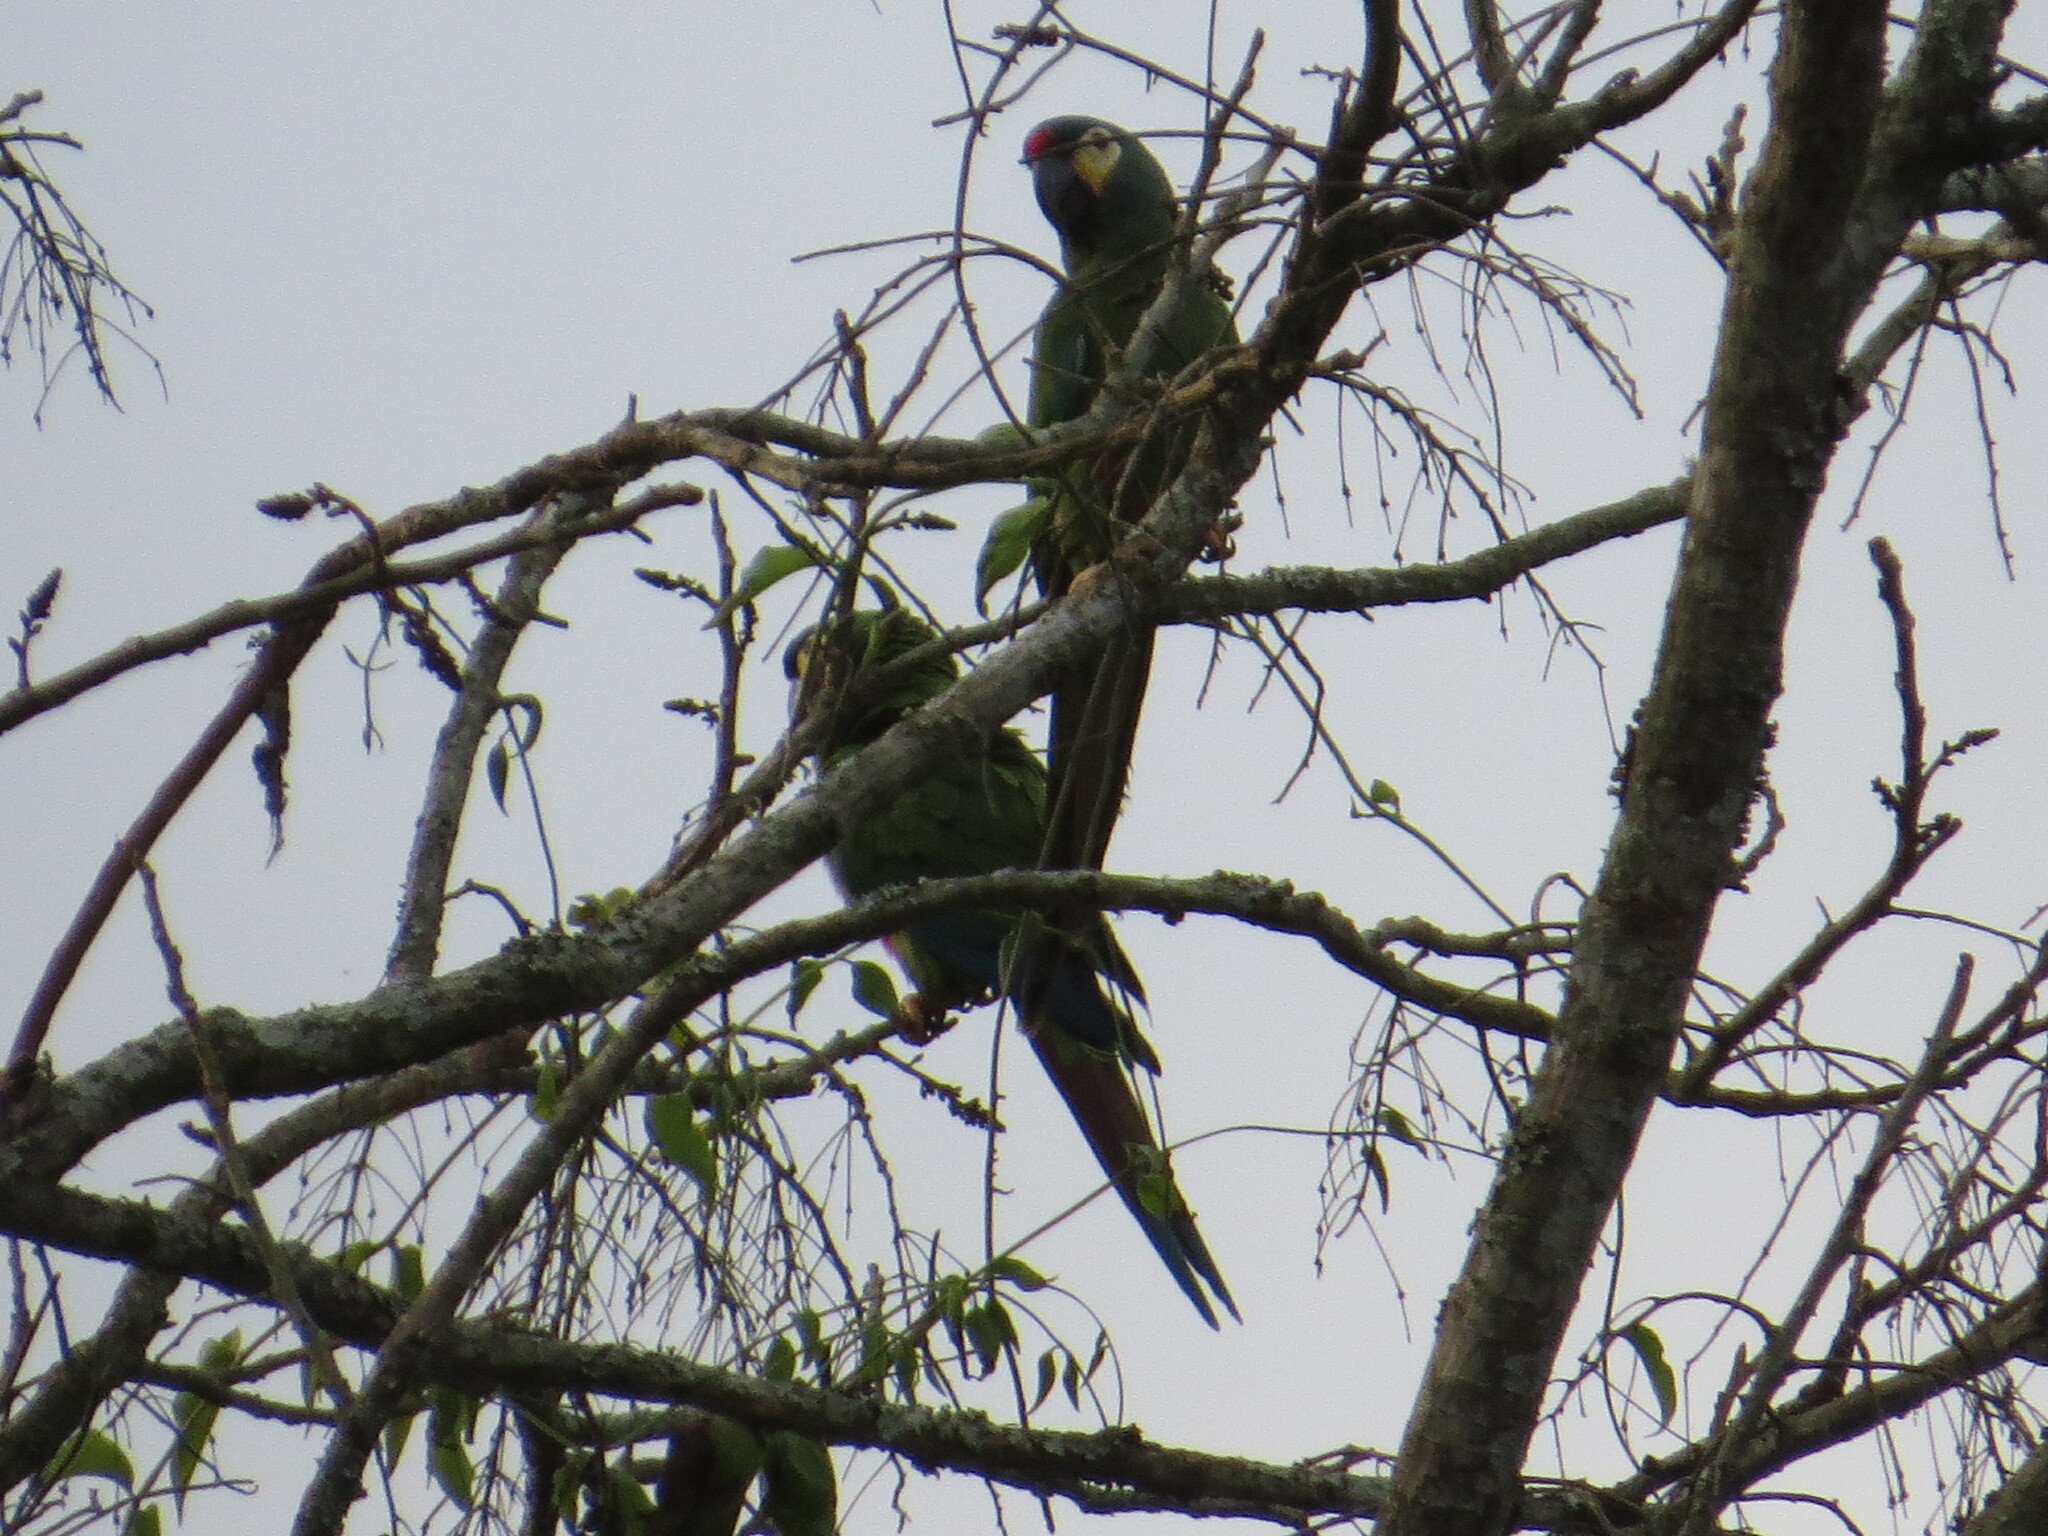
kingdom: Animalia
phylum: Chordata
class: Aves
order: Psittaciformes
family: Psittacidae
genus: Primolius
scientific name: Primolius maracana
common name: Blue-winged macaw
